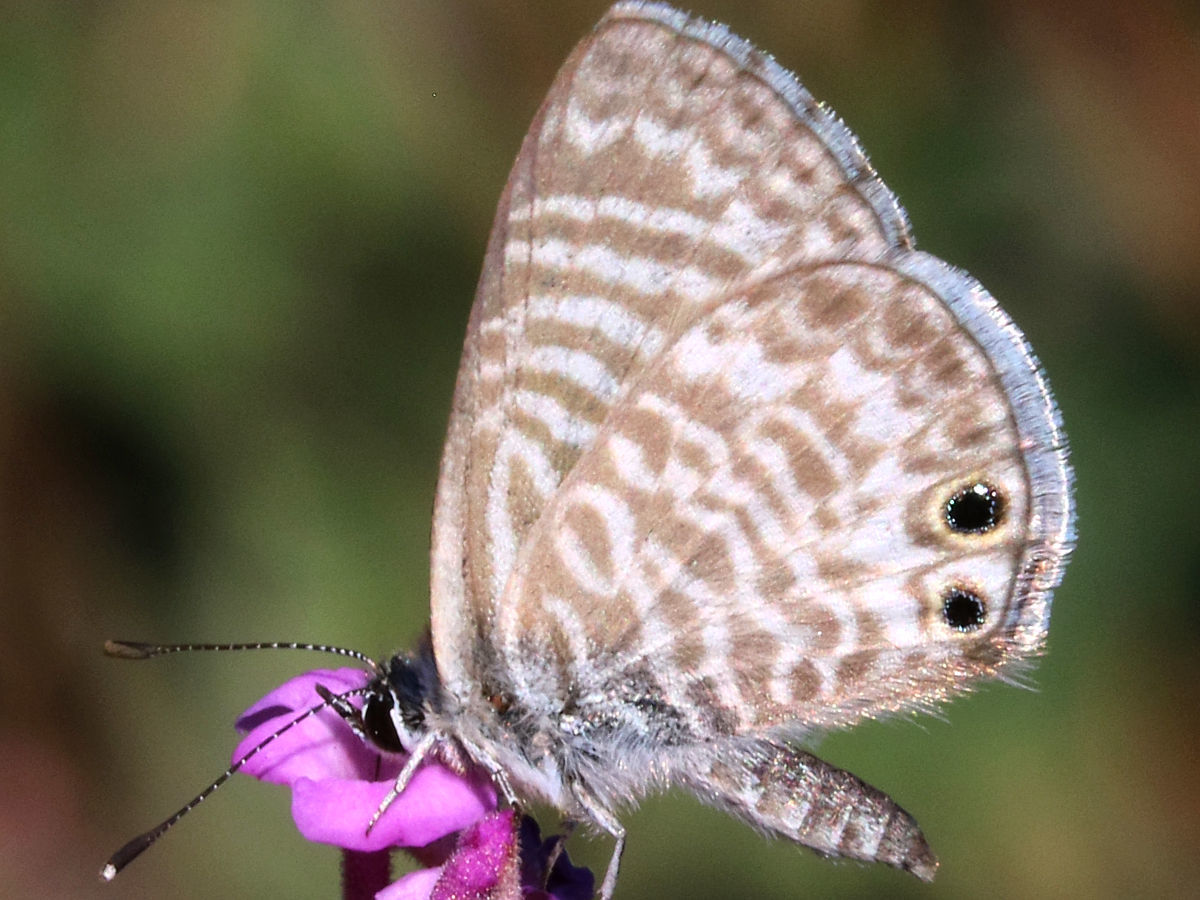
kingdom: Animalia
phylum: Arthropoda
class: Insecta
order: Lepidoptera
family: Lycaenidae
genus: Leptotes
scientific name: Leptotes marina
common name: Marine blue
